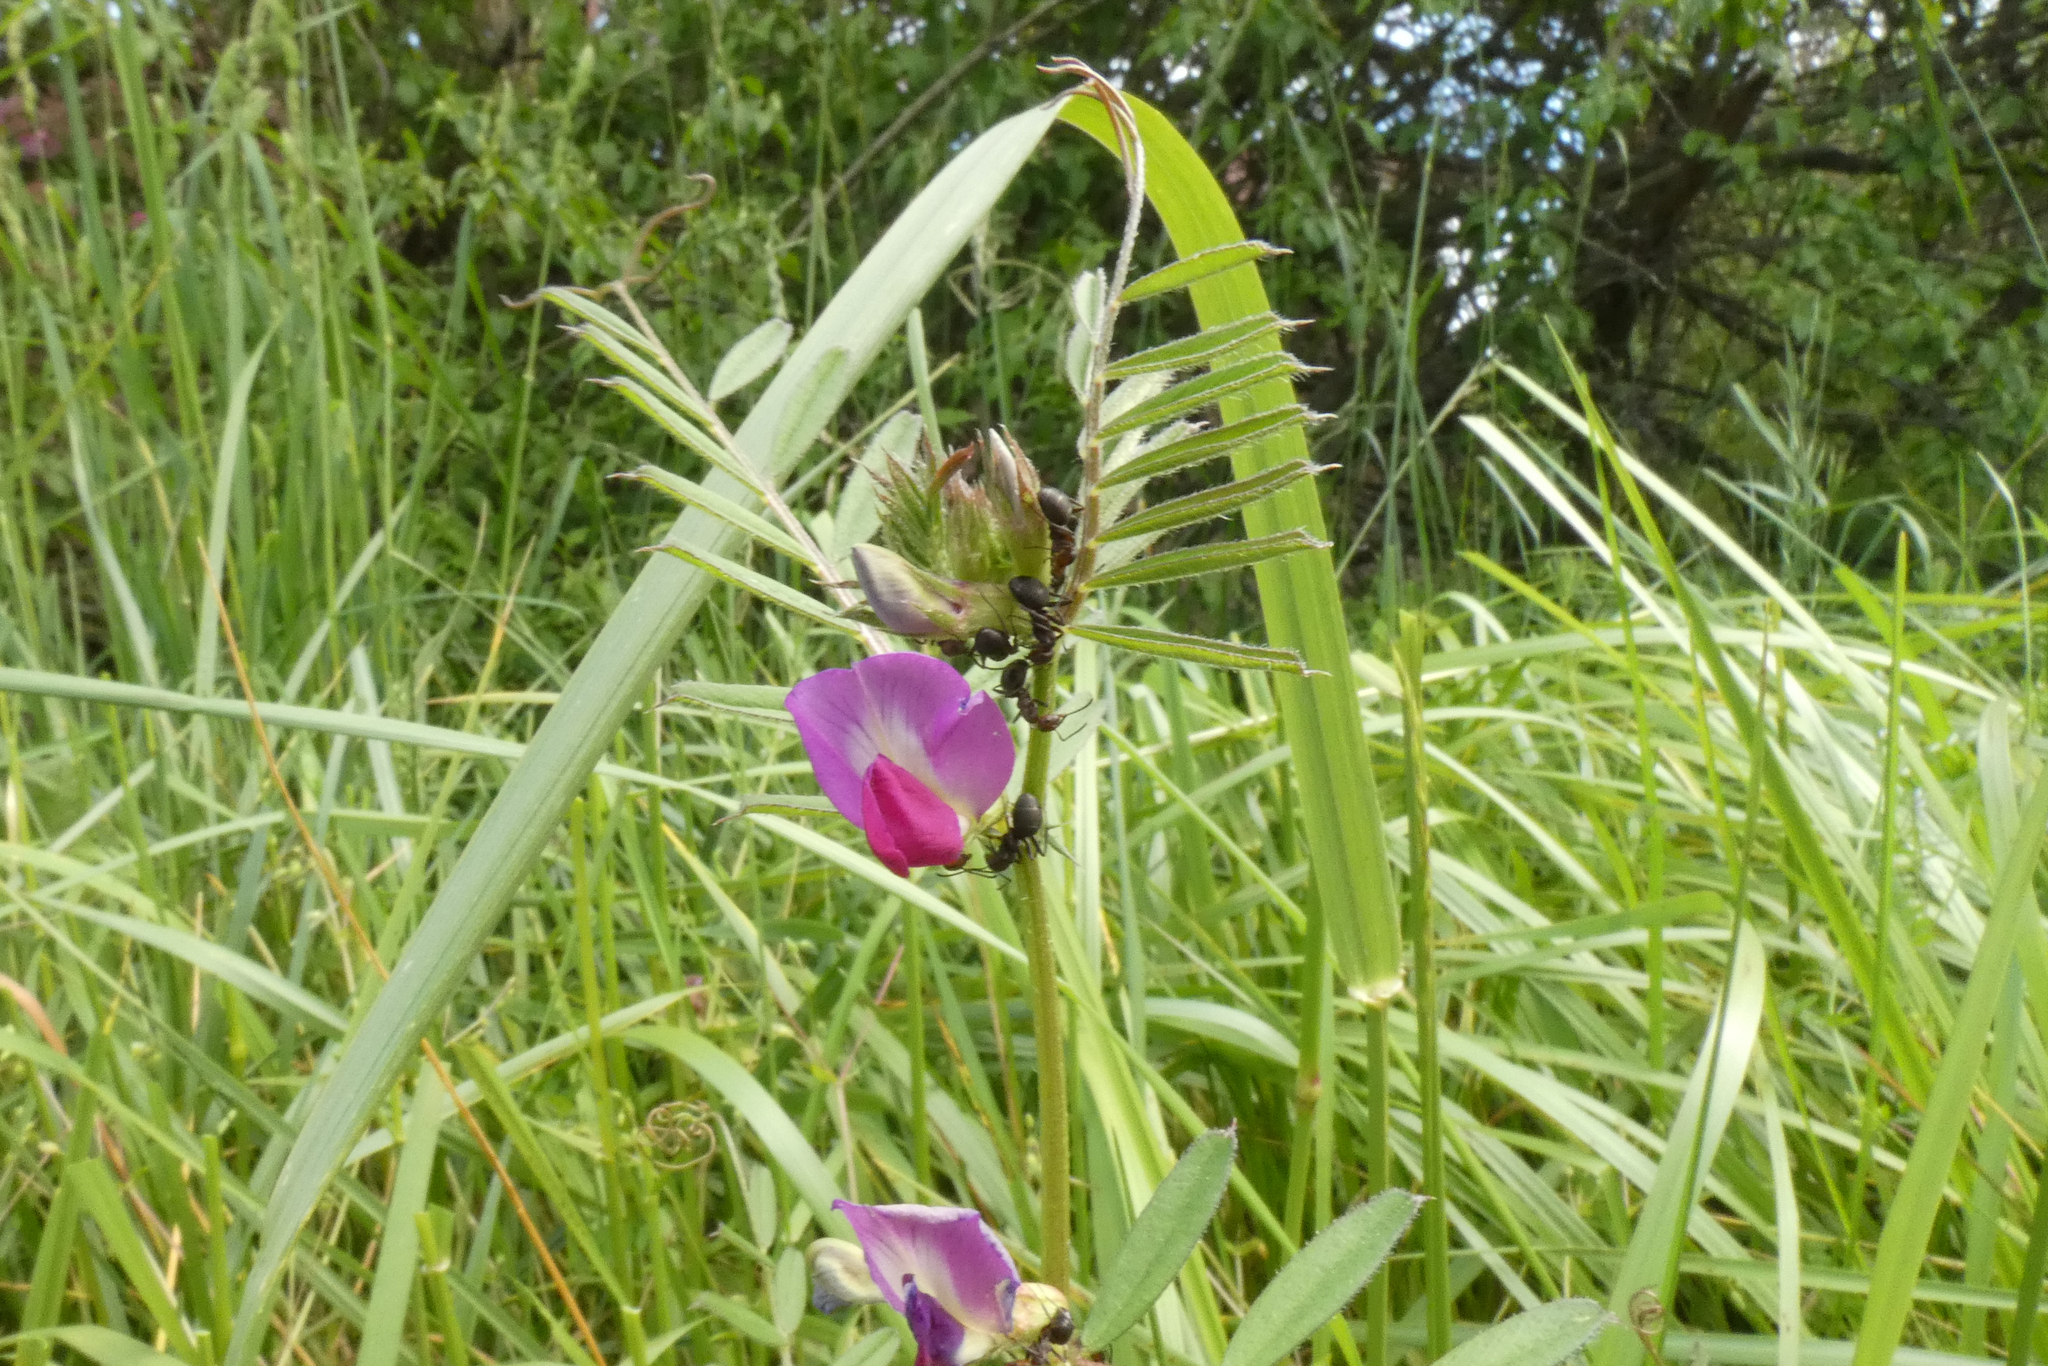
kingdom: Plantae
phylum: Tracheophyta
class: Magnoliopsida
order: Fabales
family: Fabaceae
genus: Vicia
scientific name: Vicia sativa
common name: Garden vetch
